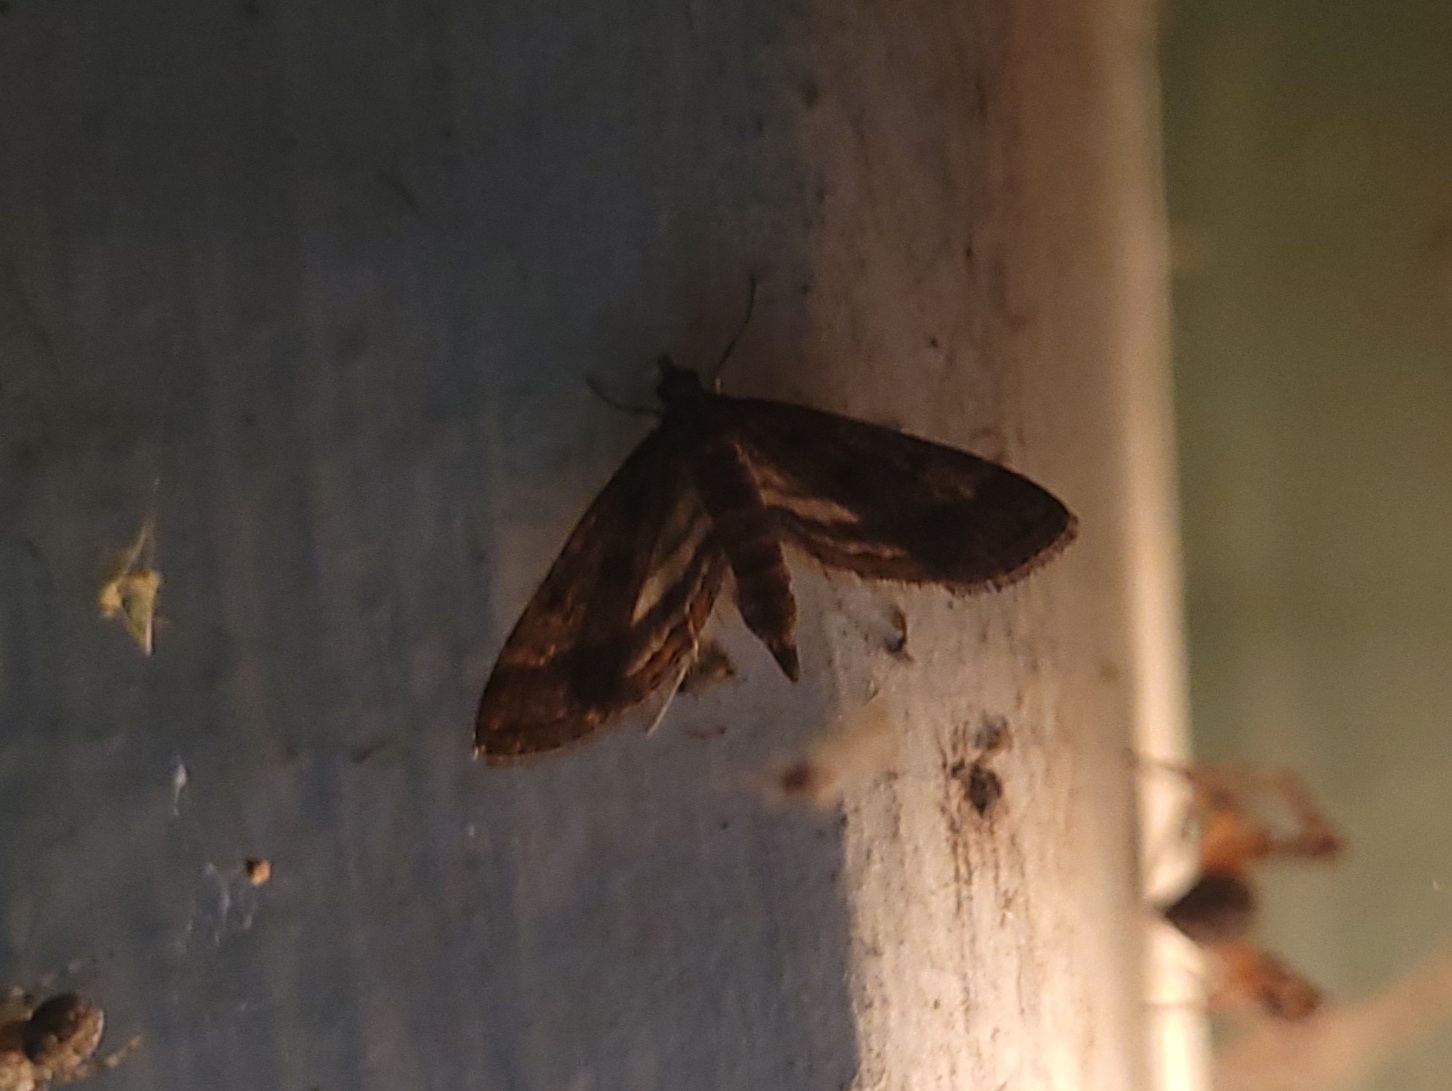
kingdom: Animalia
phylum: Arthropoda
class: Insecta
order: Lepidoptera
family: Crambidae
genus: Parapoynx
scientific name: Parapoynx obscuralis
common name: American china-mark
